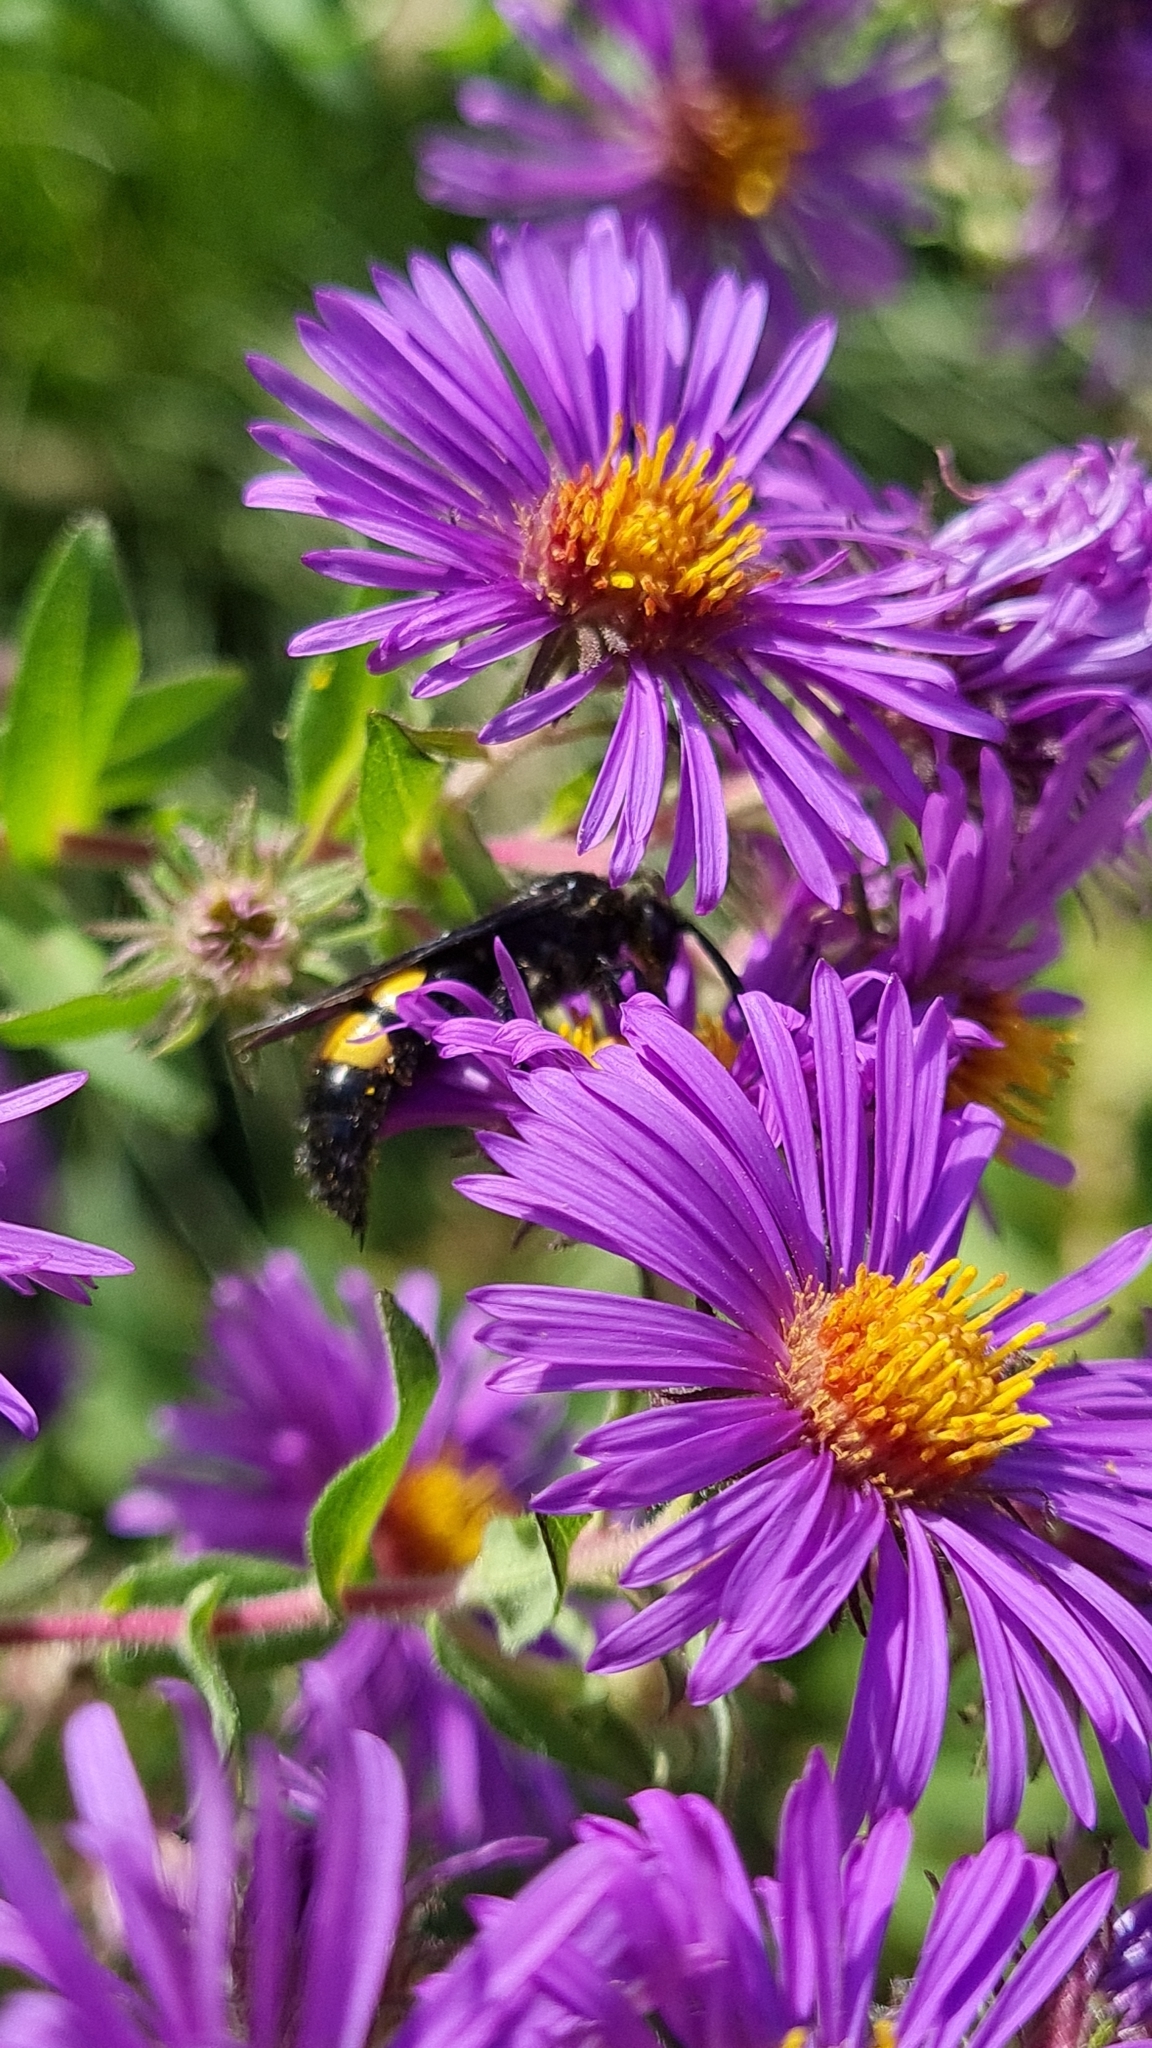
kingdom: Animalia
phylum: Arthropoda
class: Insecta
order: Hymenoptera
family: Scoliidae
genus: Scolia
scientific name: Scolia hirta
